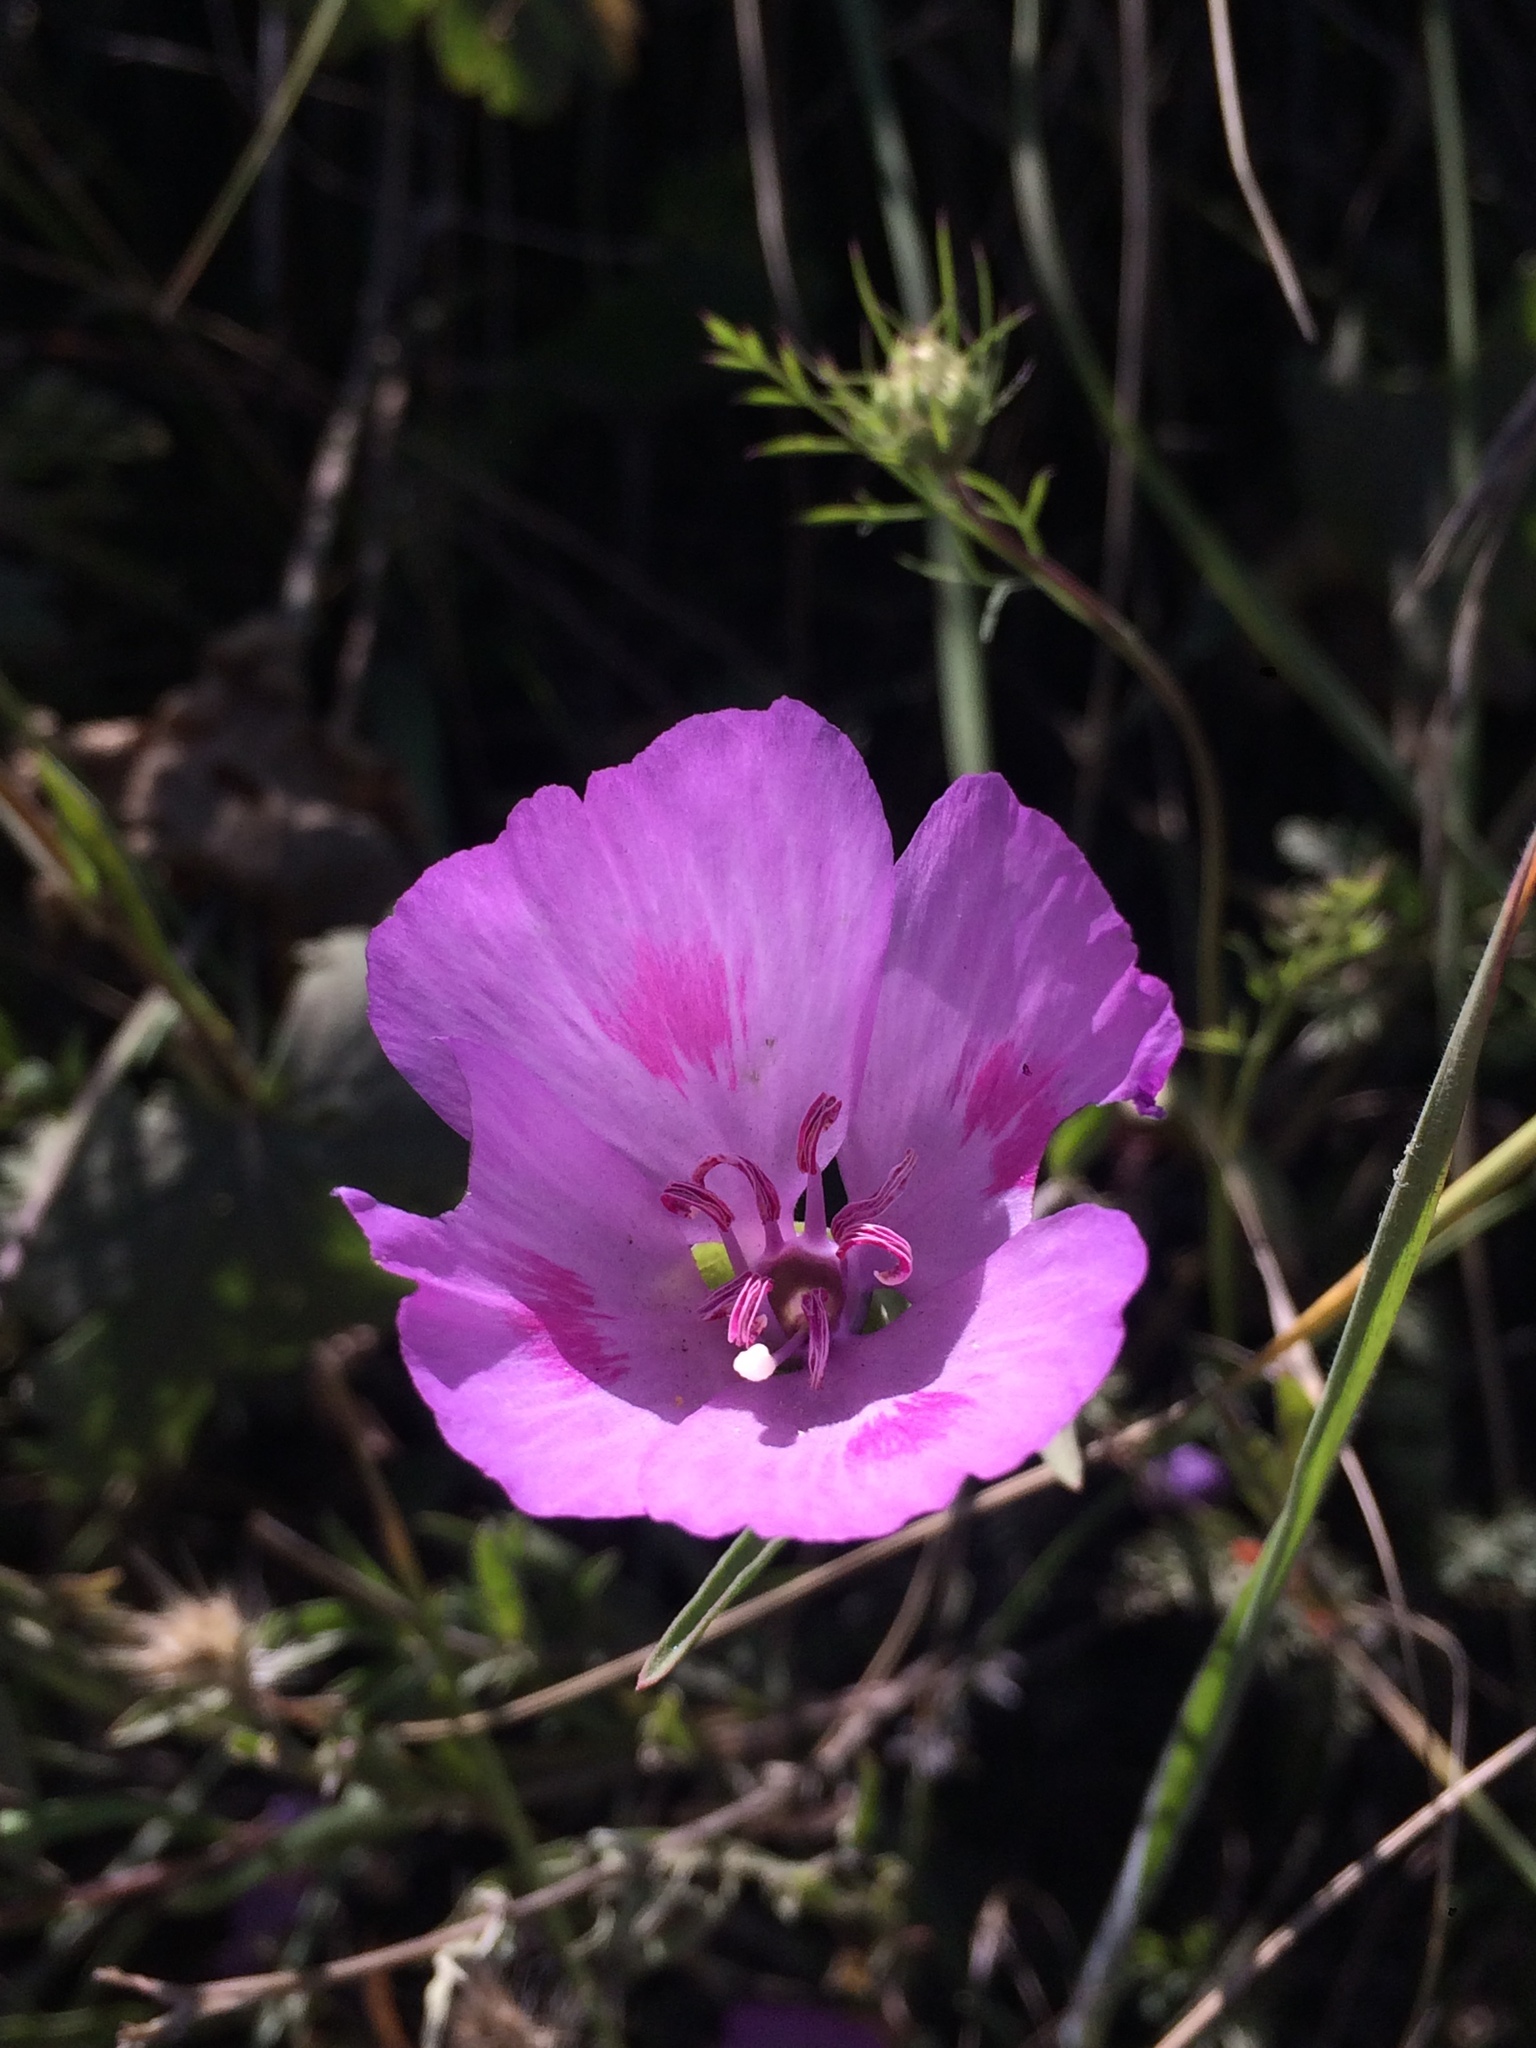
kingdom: Plantae
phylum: Tracheophyta
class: Magnoliopsida
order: Myrtales
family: Onagraceae
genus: Clarkia
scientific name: Clarkia amoena
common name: Godetia
